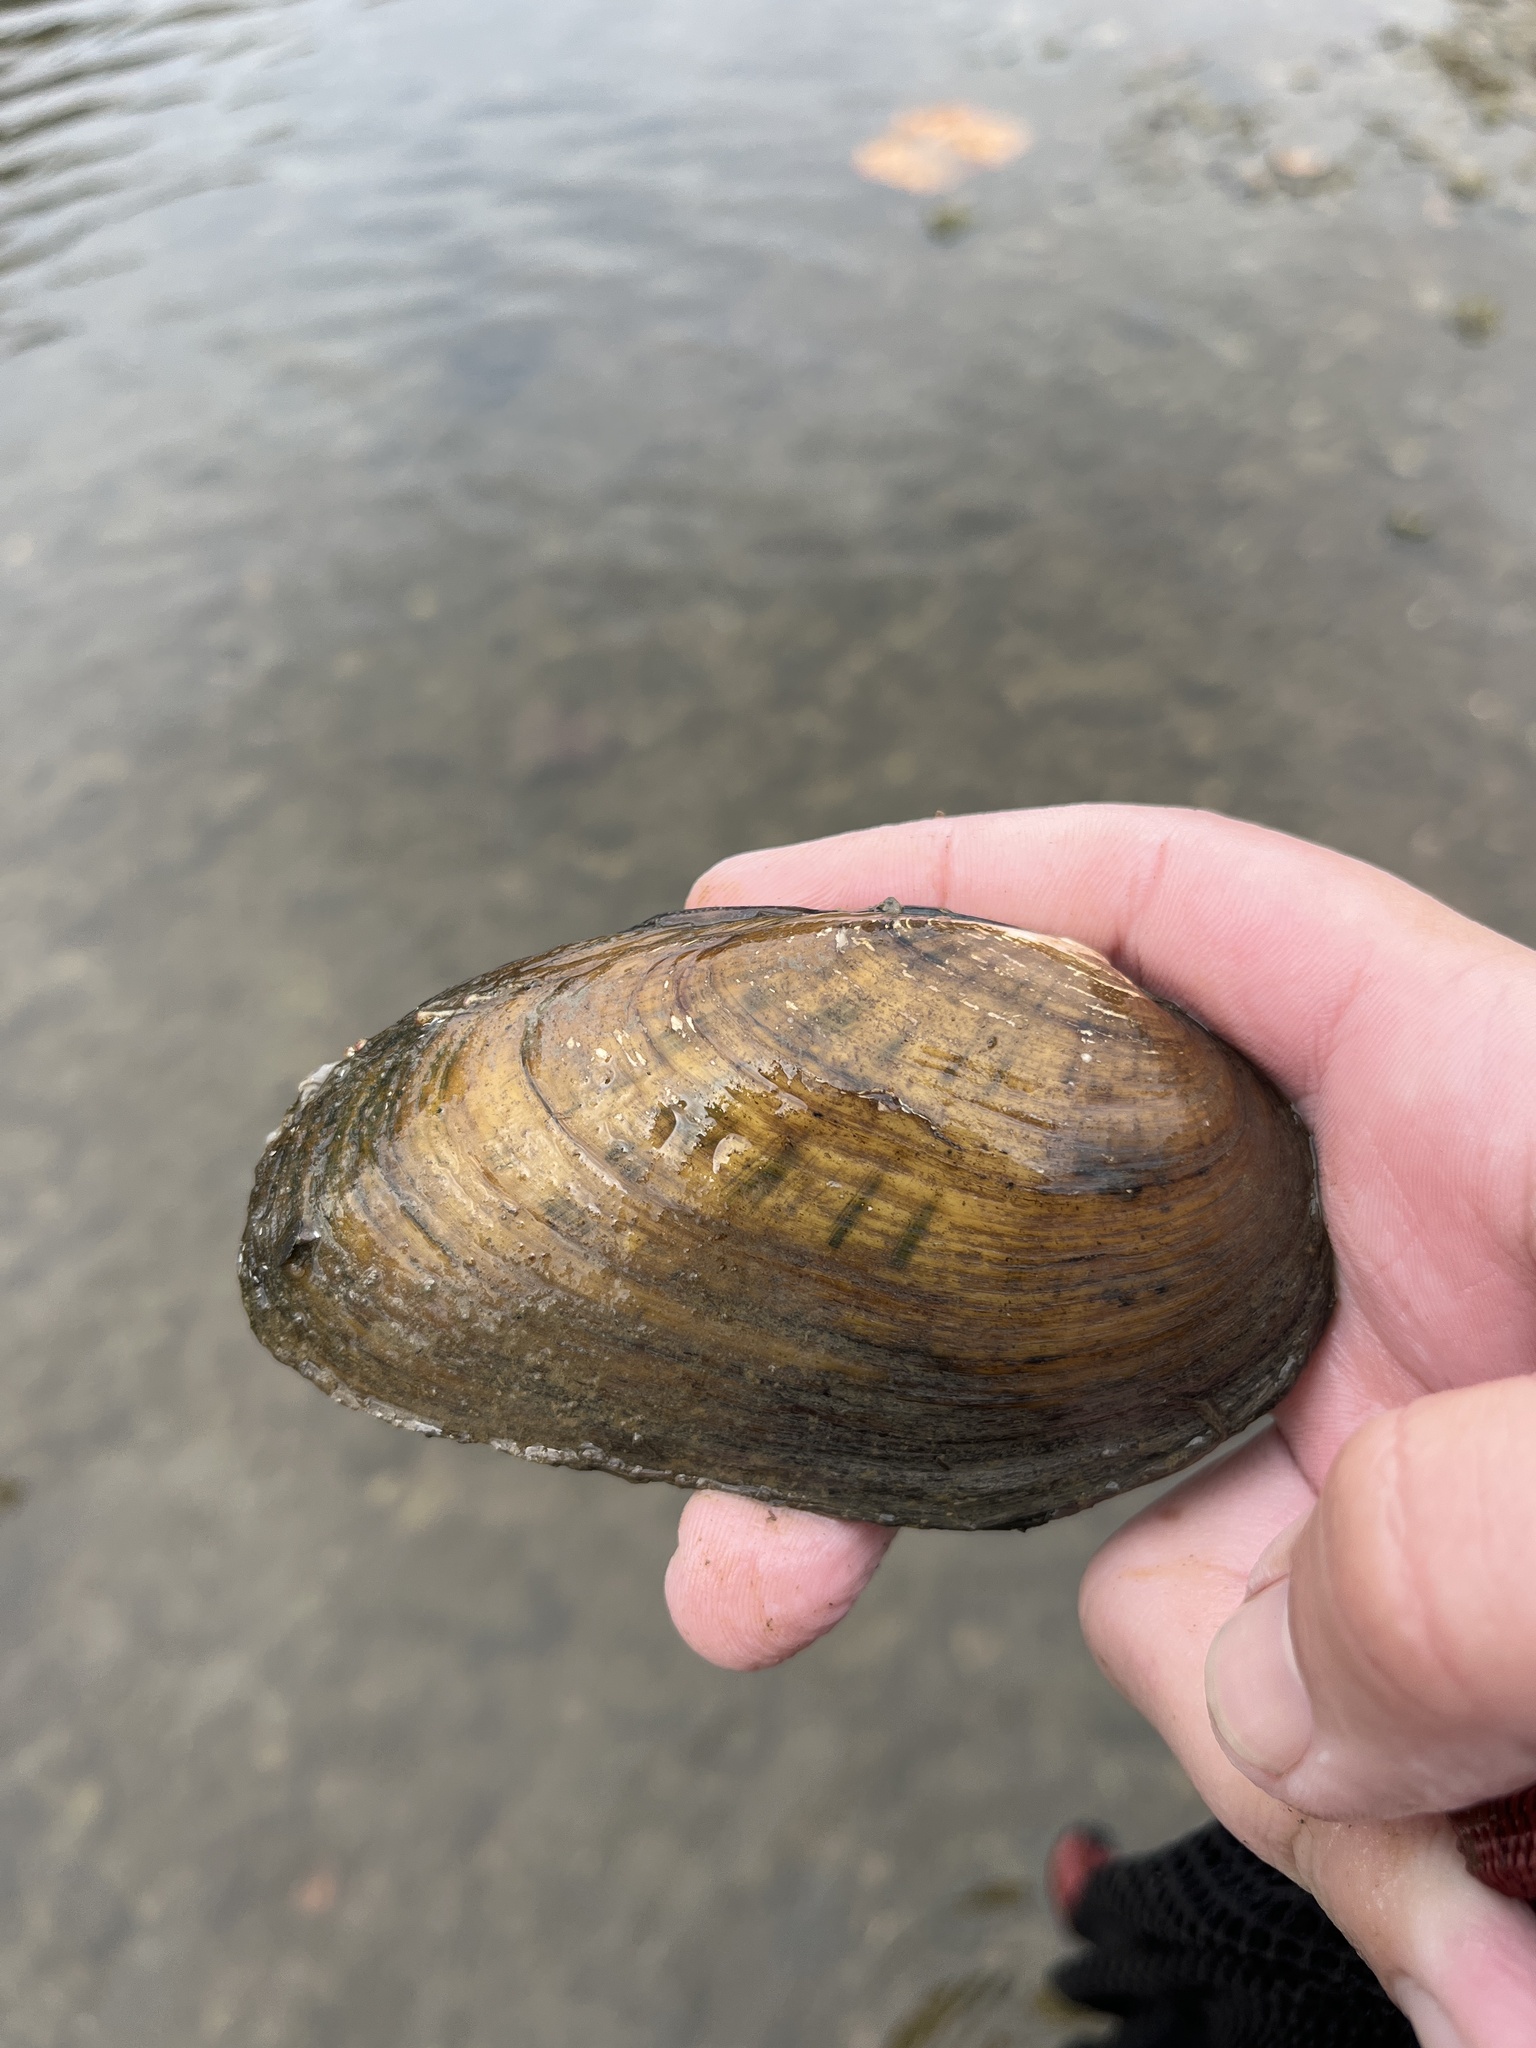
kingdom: Animalia
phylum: Mollusca
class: Bivalvia
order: Unionida
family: Unionidae
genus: Ptychobranchus
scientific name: Ptychobranchus fasciolaris
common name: Kidneyshell
